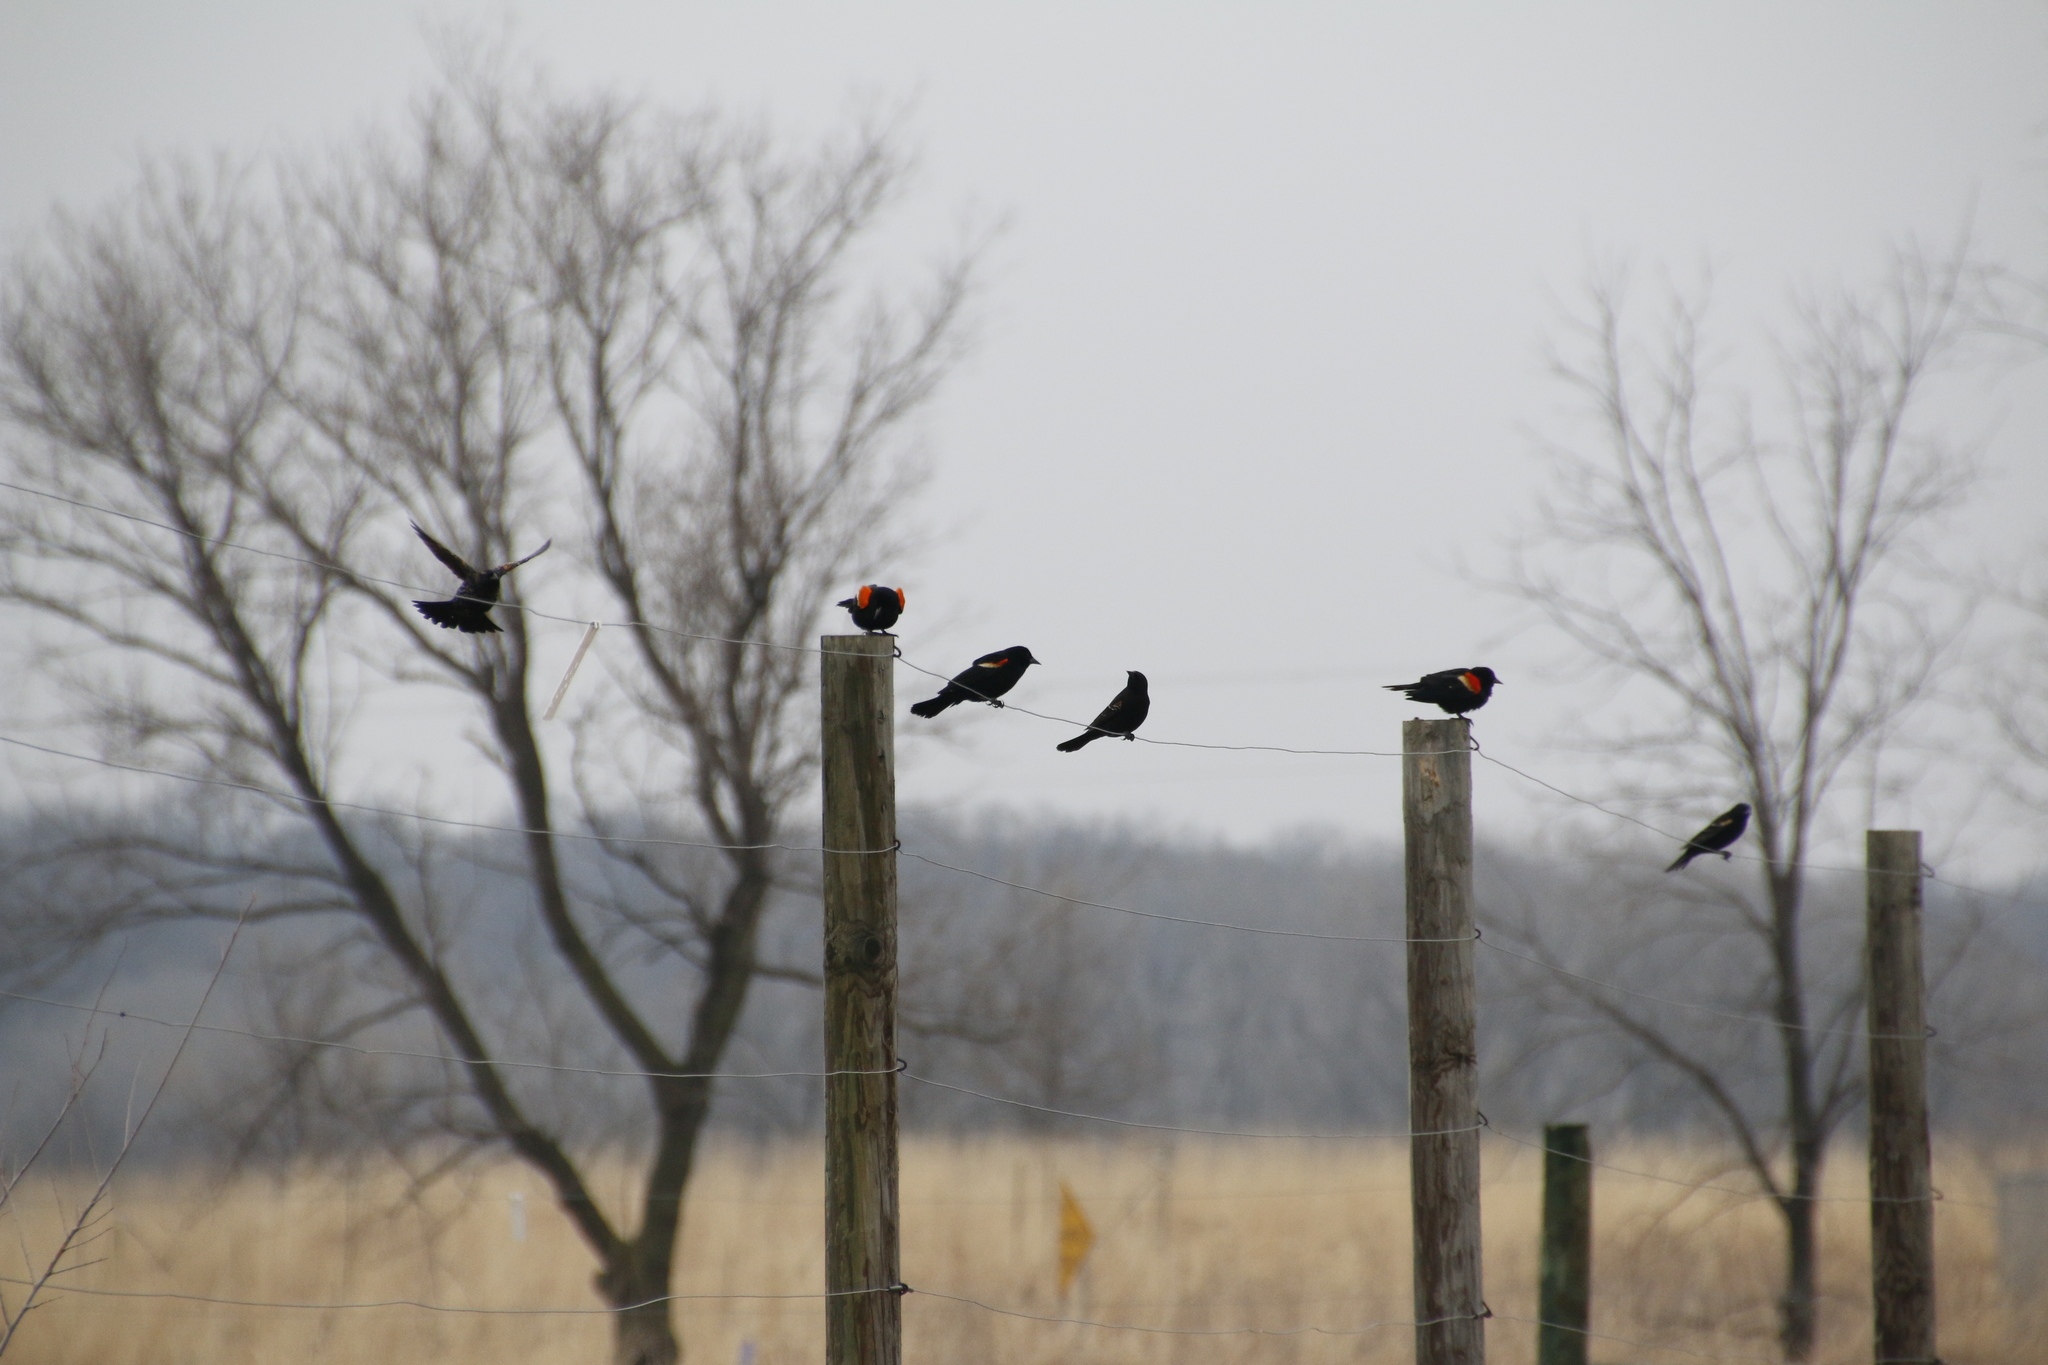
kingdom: Animalia
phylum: Chordata
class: Aves
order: Passeriformes
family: Icteridae
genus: Agelaius
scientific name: Agelaius phoeniceus
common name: Red-winged blackbird
